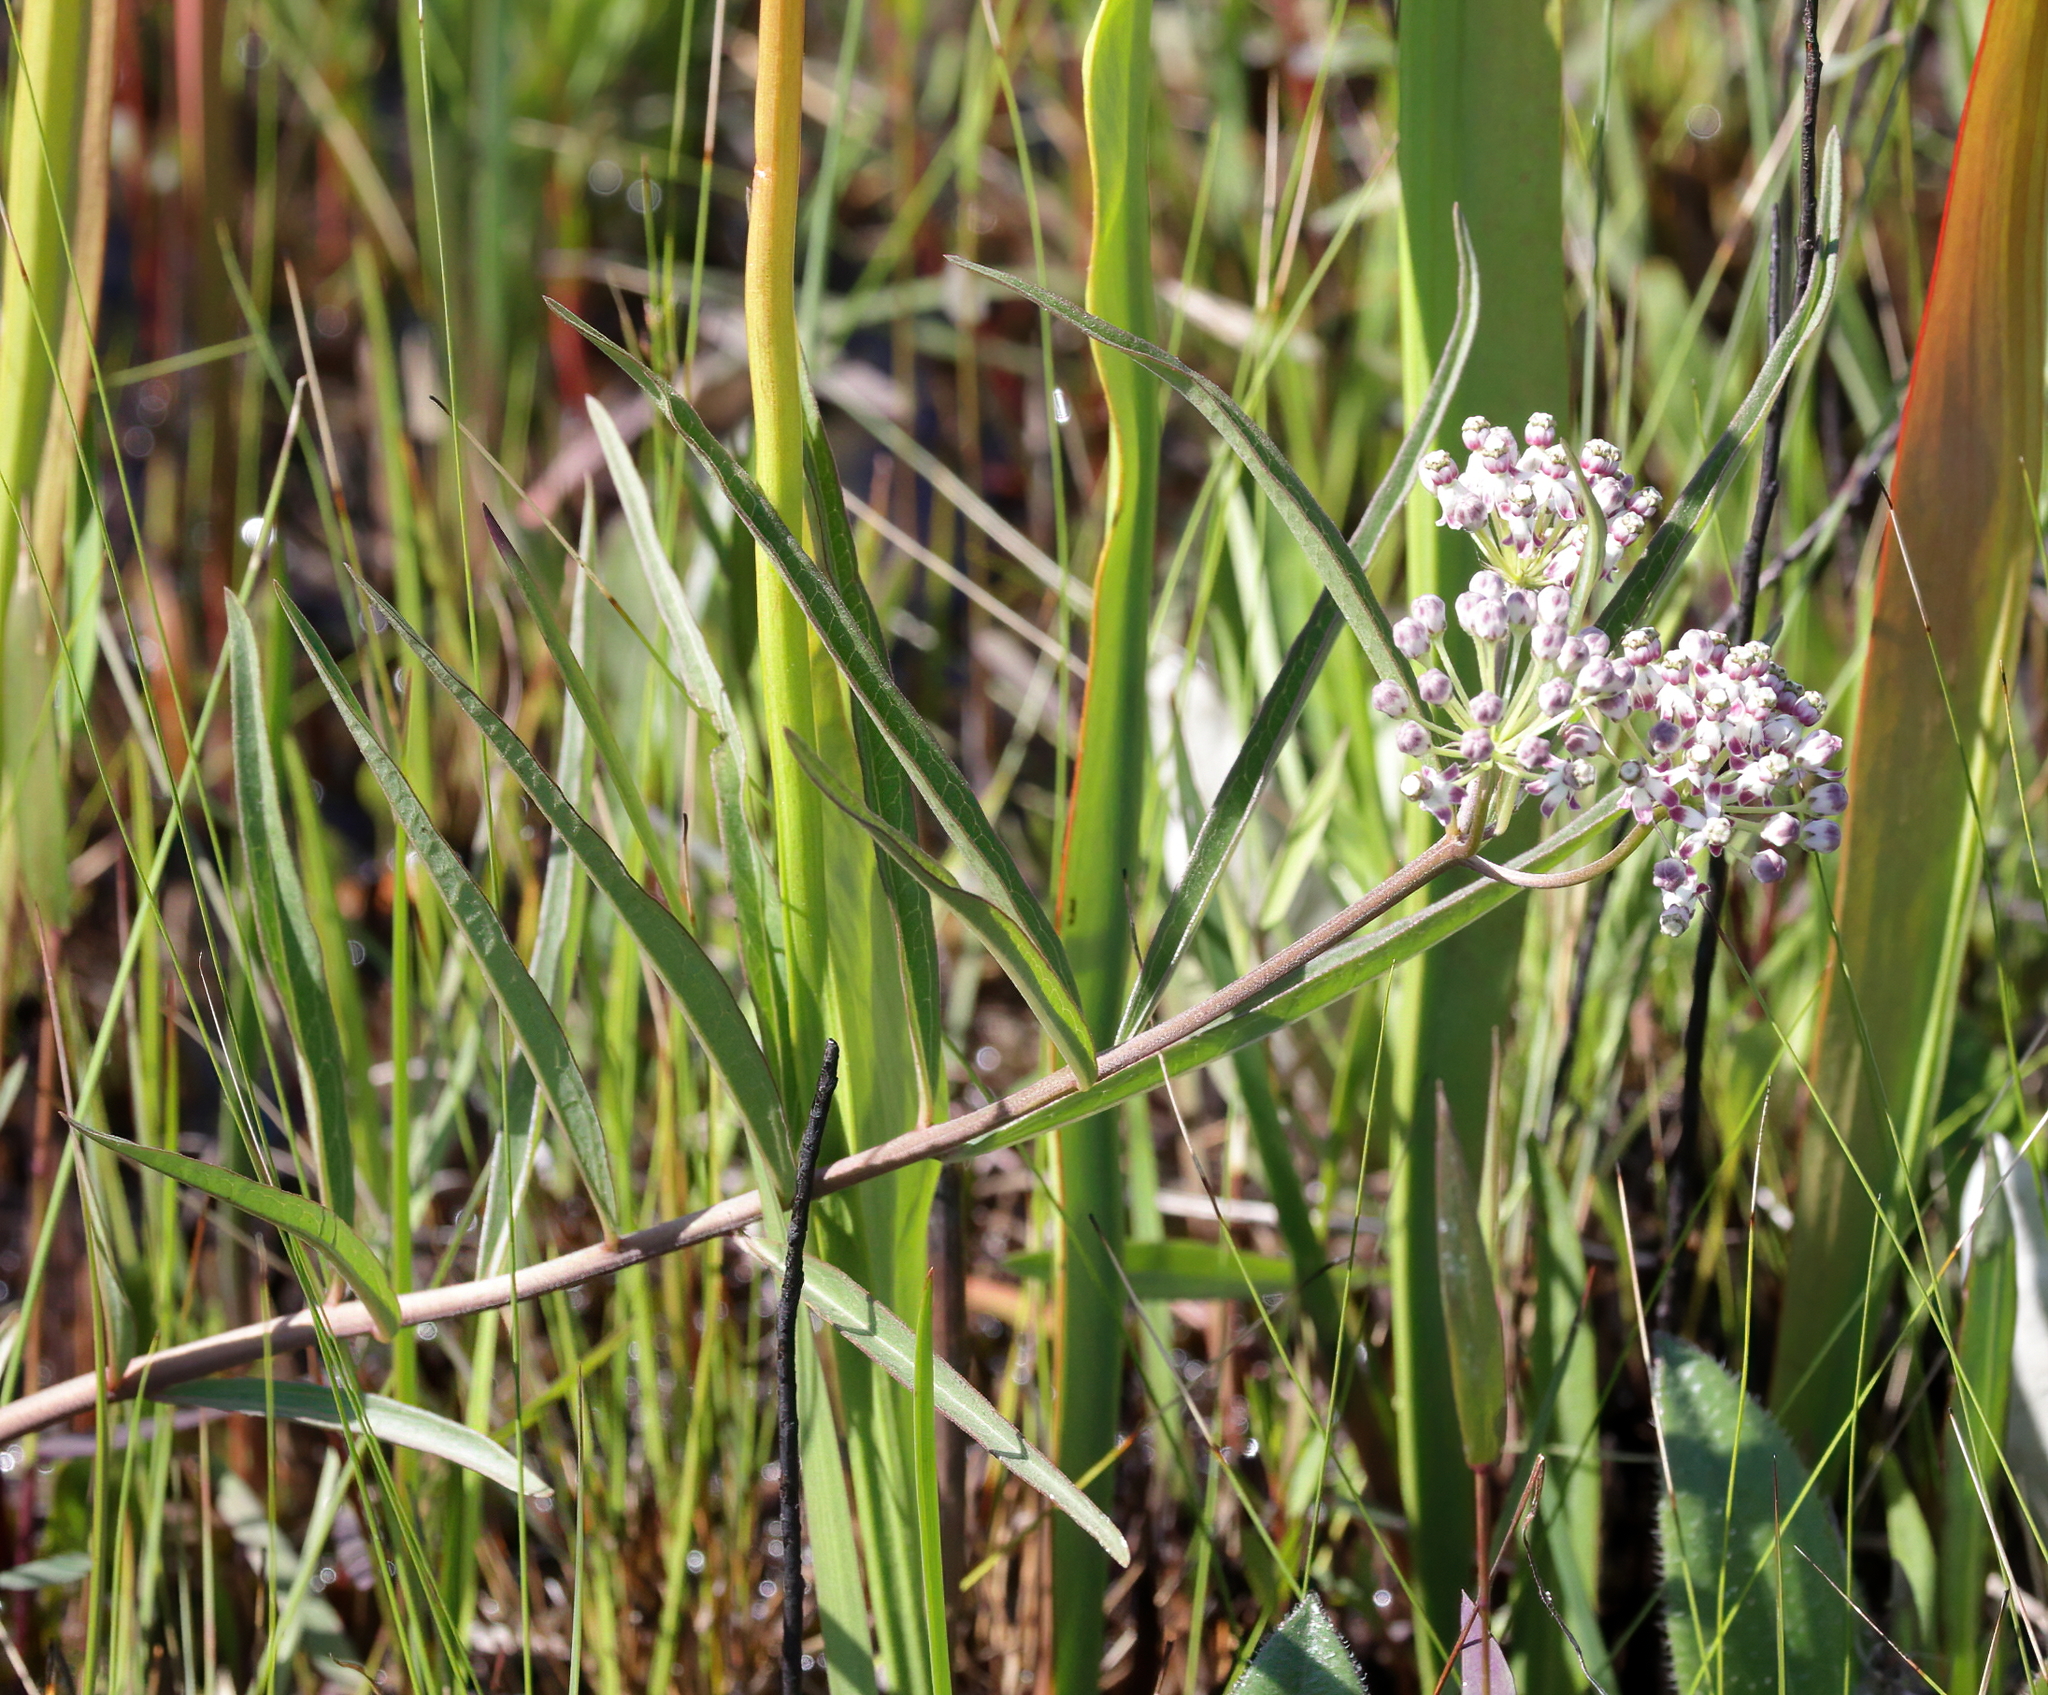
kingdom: Plantae
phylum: Tracheophyta
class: Magnoliopsida
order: Gentianales
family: Apocynaceae
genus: Asclepias
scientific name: Asclepias longifolia
